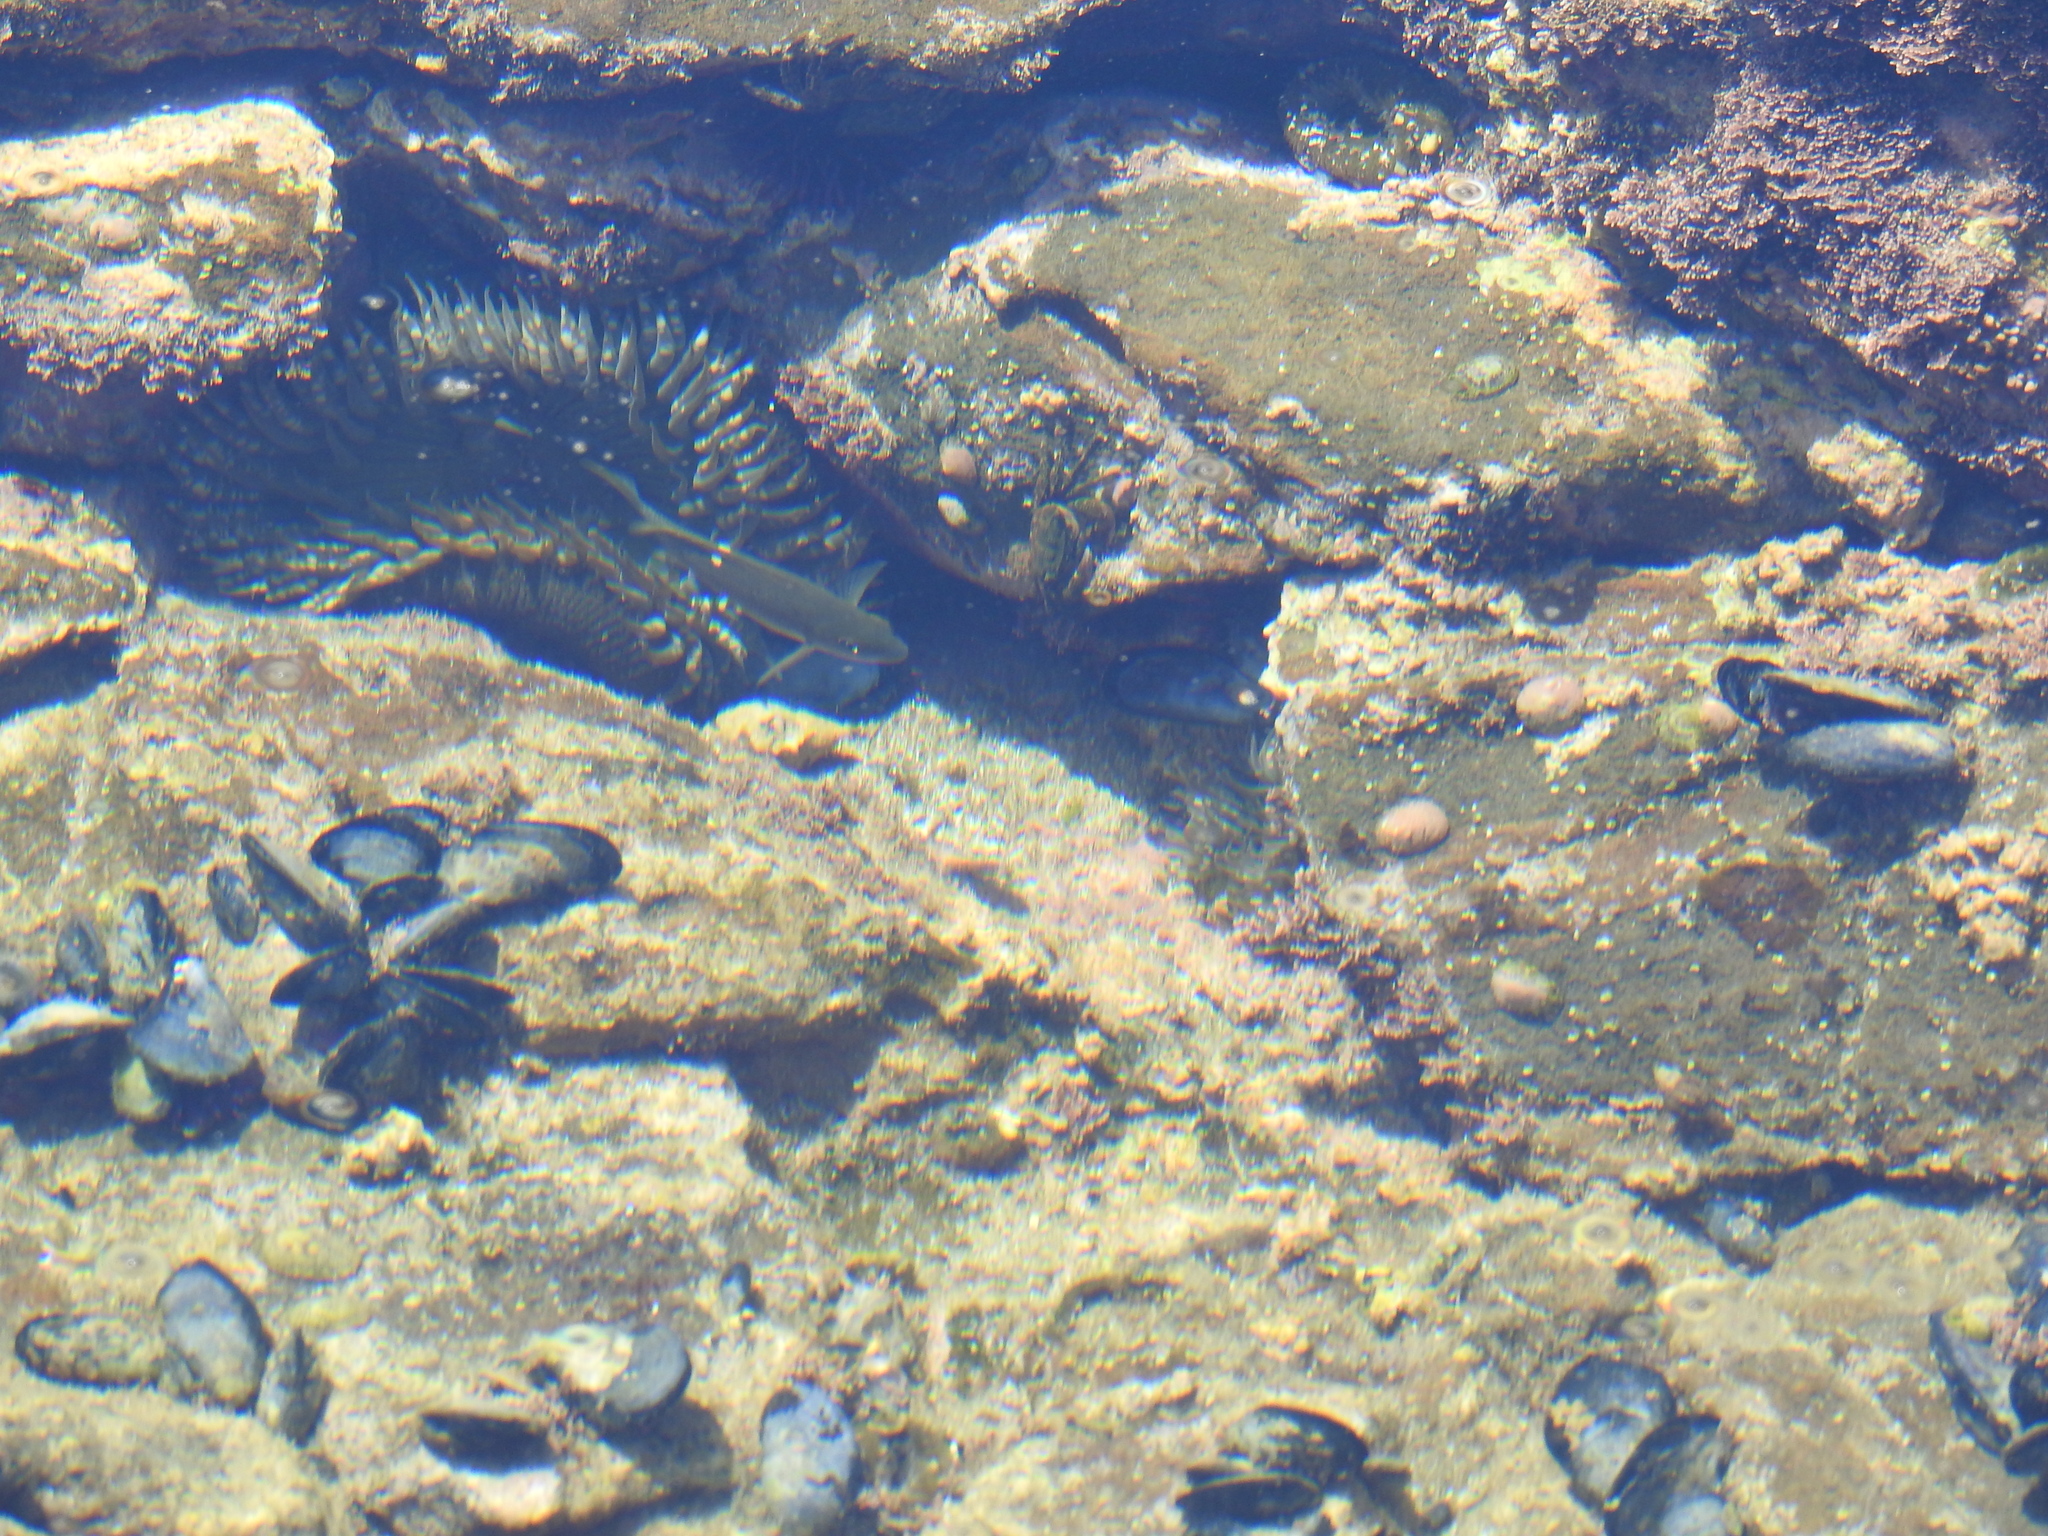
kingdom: Animalia
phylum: Chordata
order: Perciformes
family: Kyphosidae
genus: Girella
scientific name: Girella nigricans
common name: Opaleye
